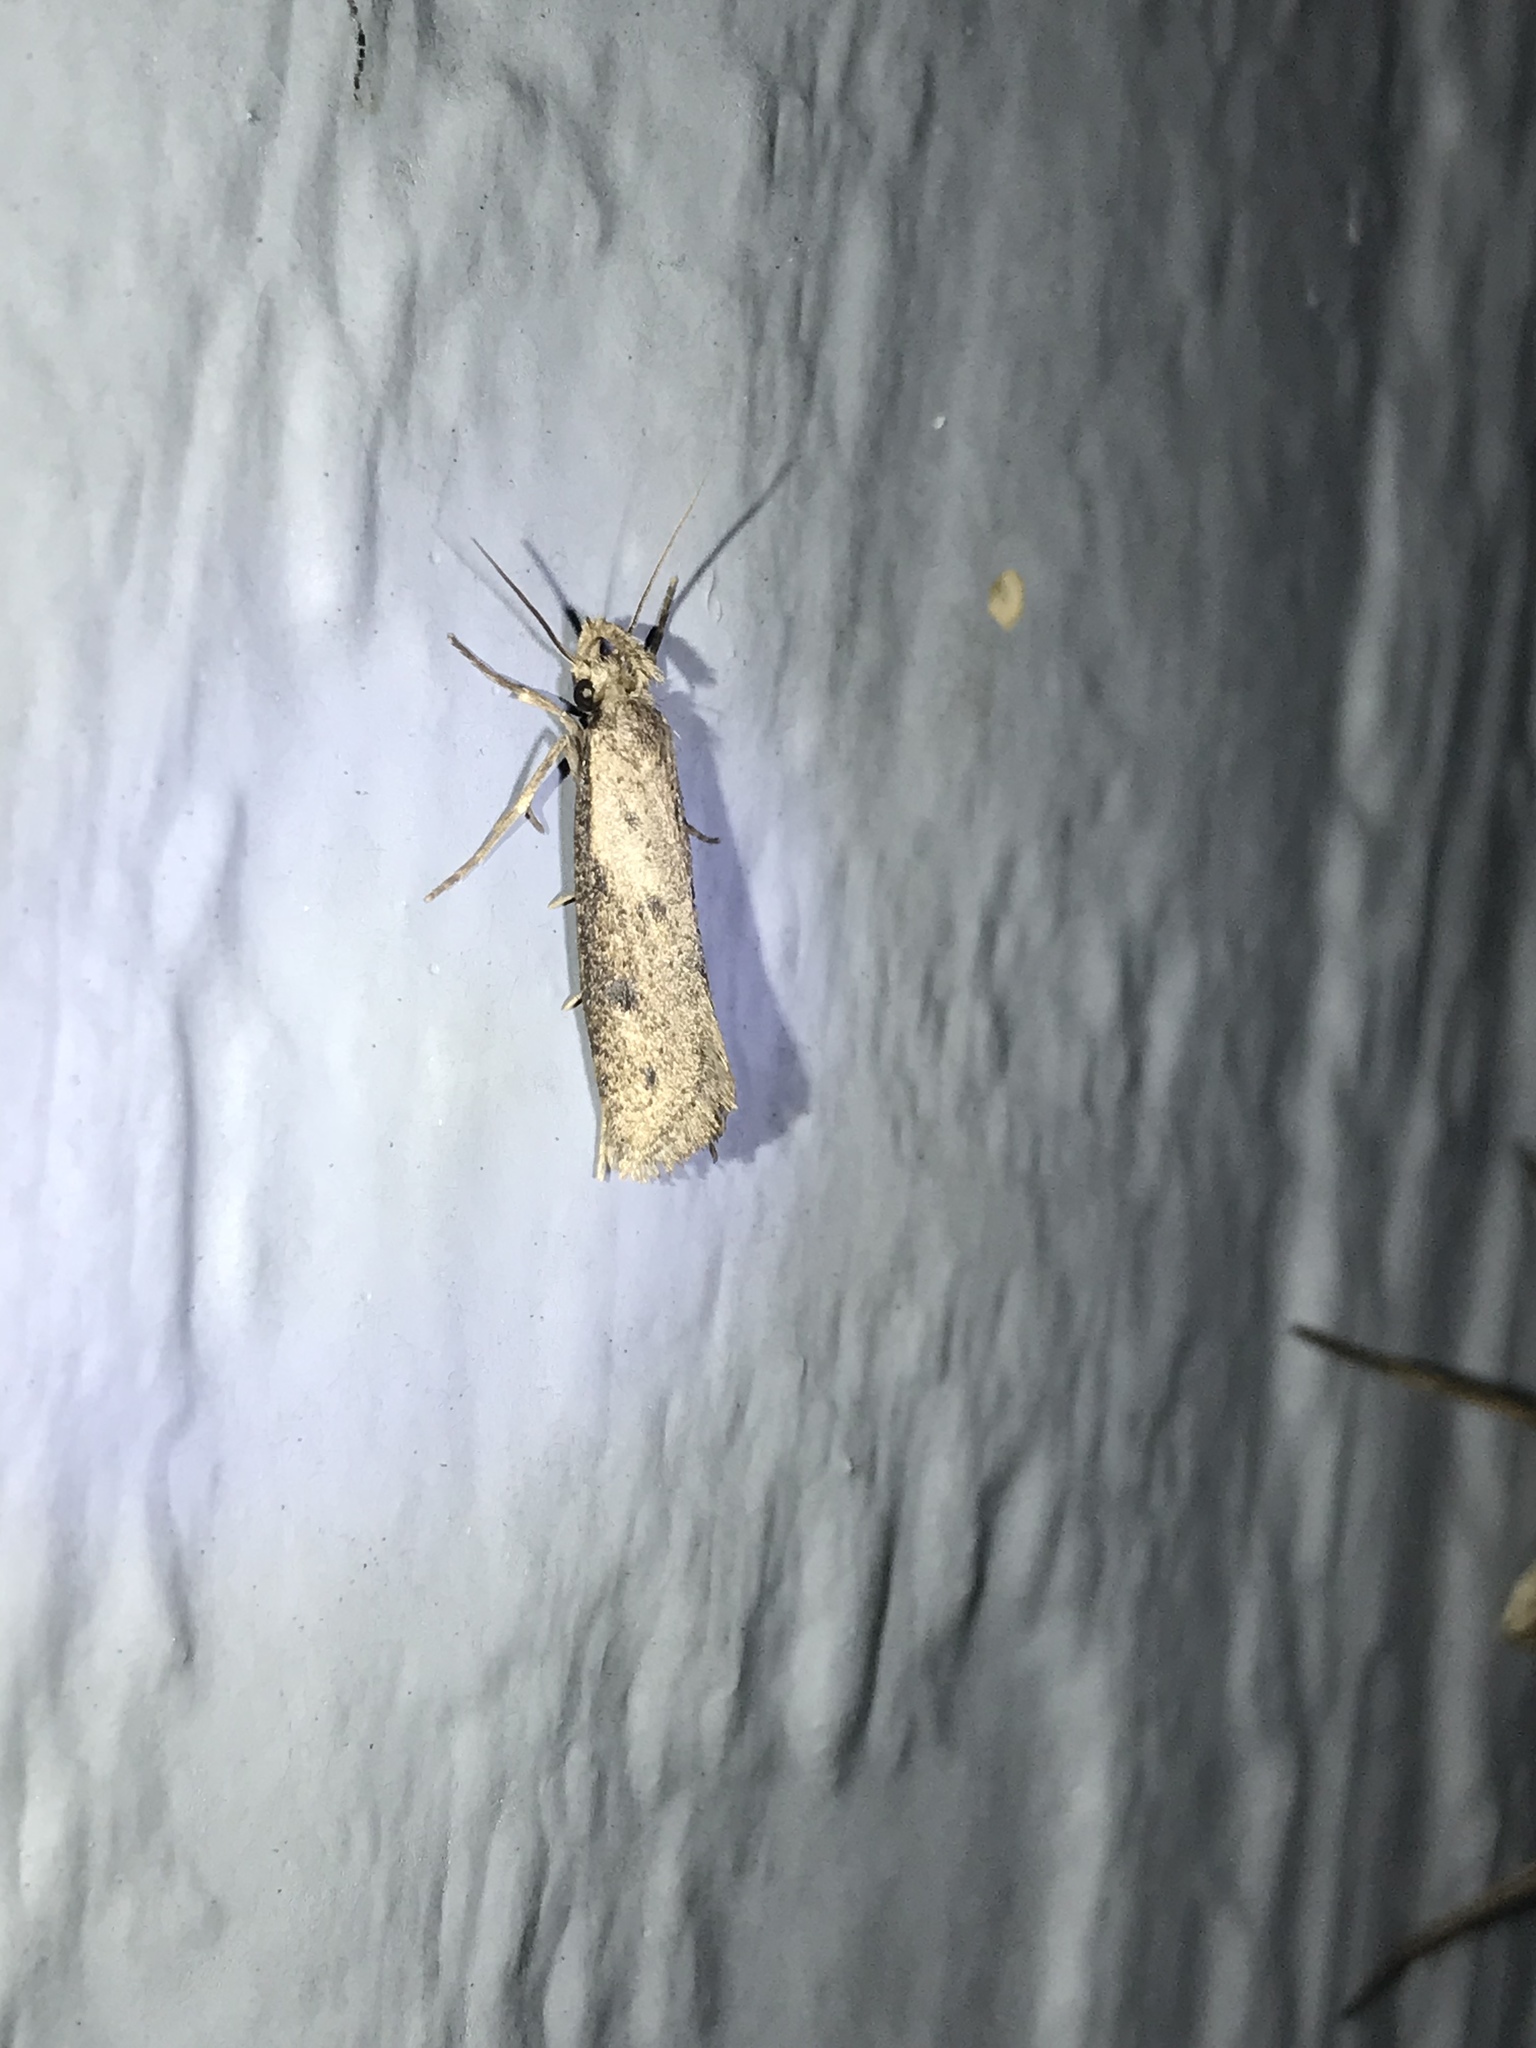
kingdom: Animalia
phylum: Arthropoda
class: Insecta
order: Lepidoptera
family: Tineidae
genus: Acrolophus
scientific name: Acrolophus mortipennella
